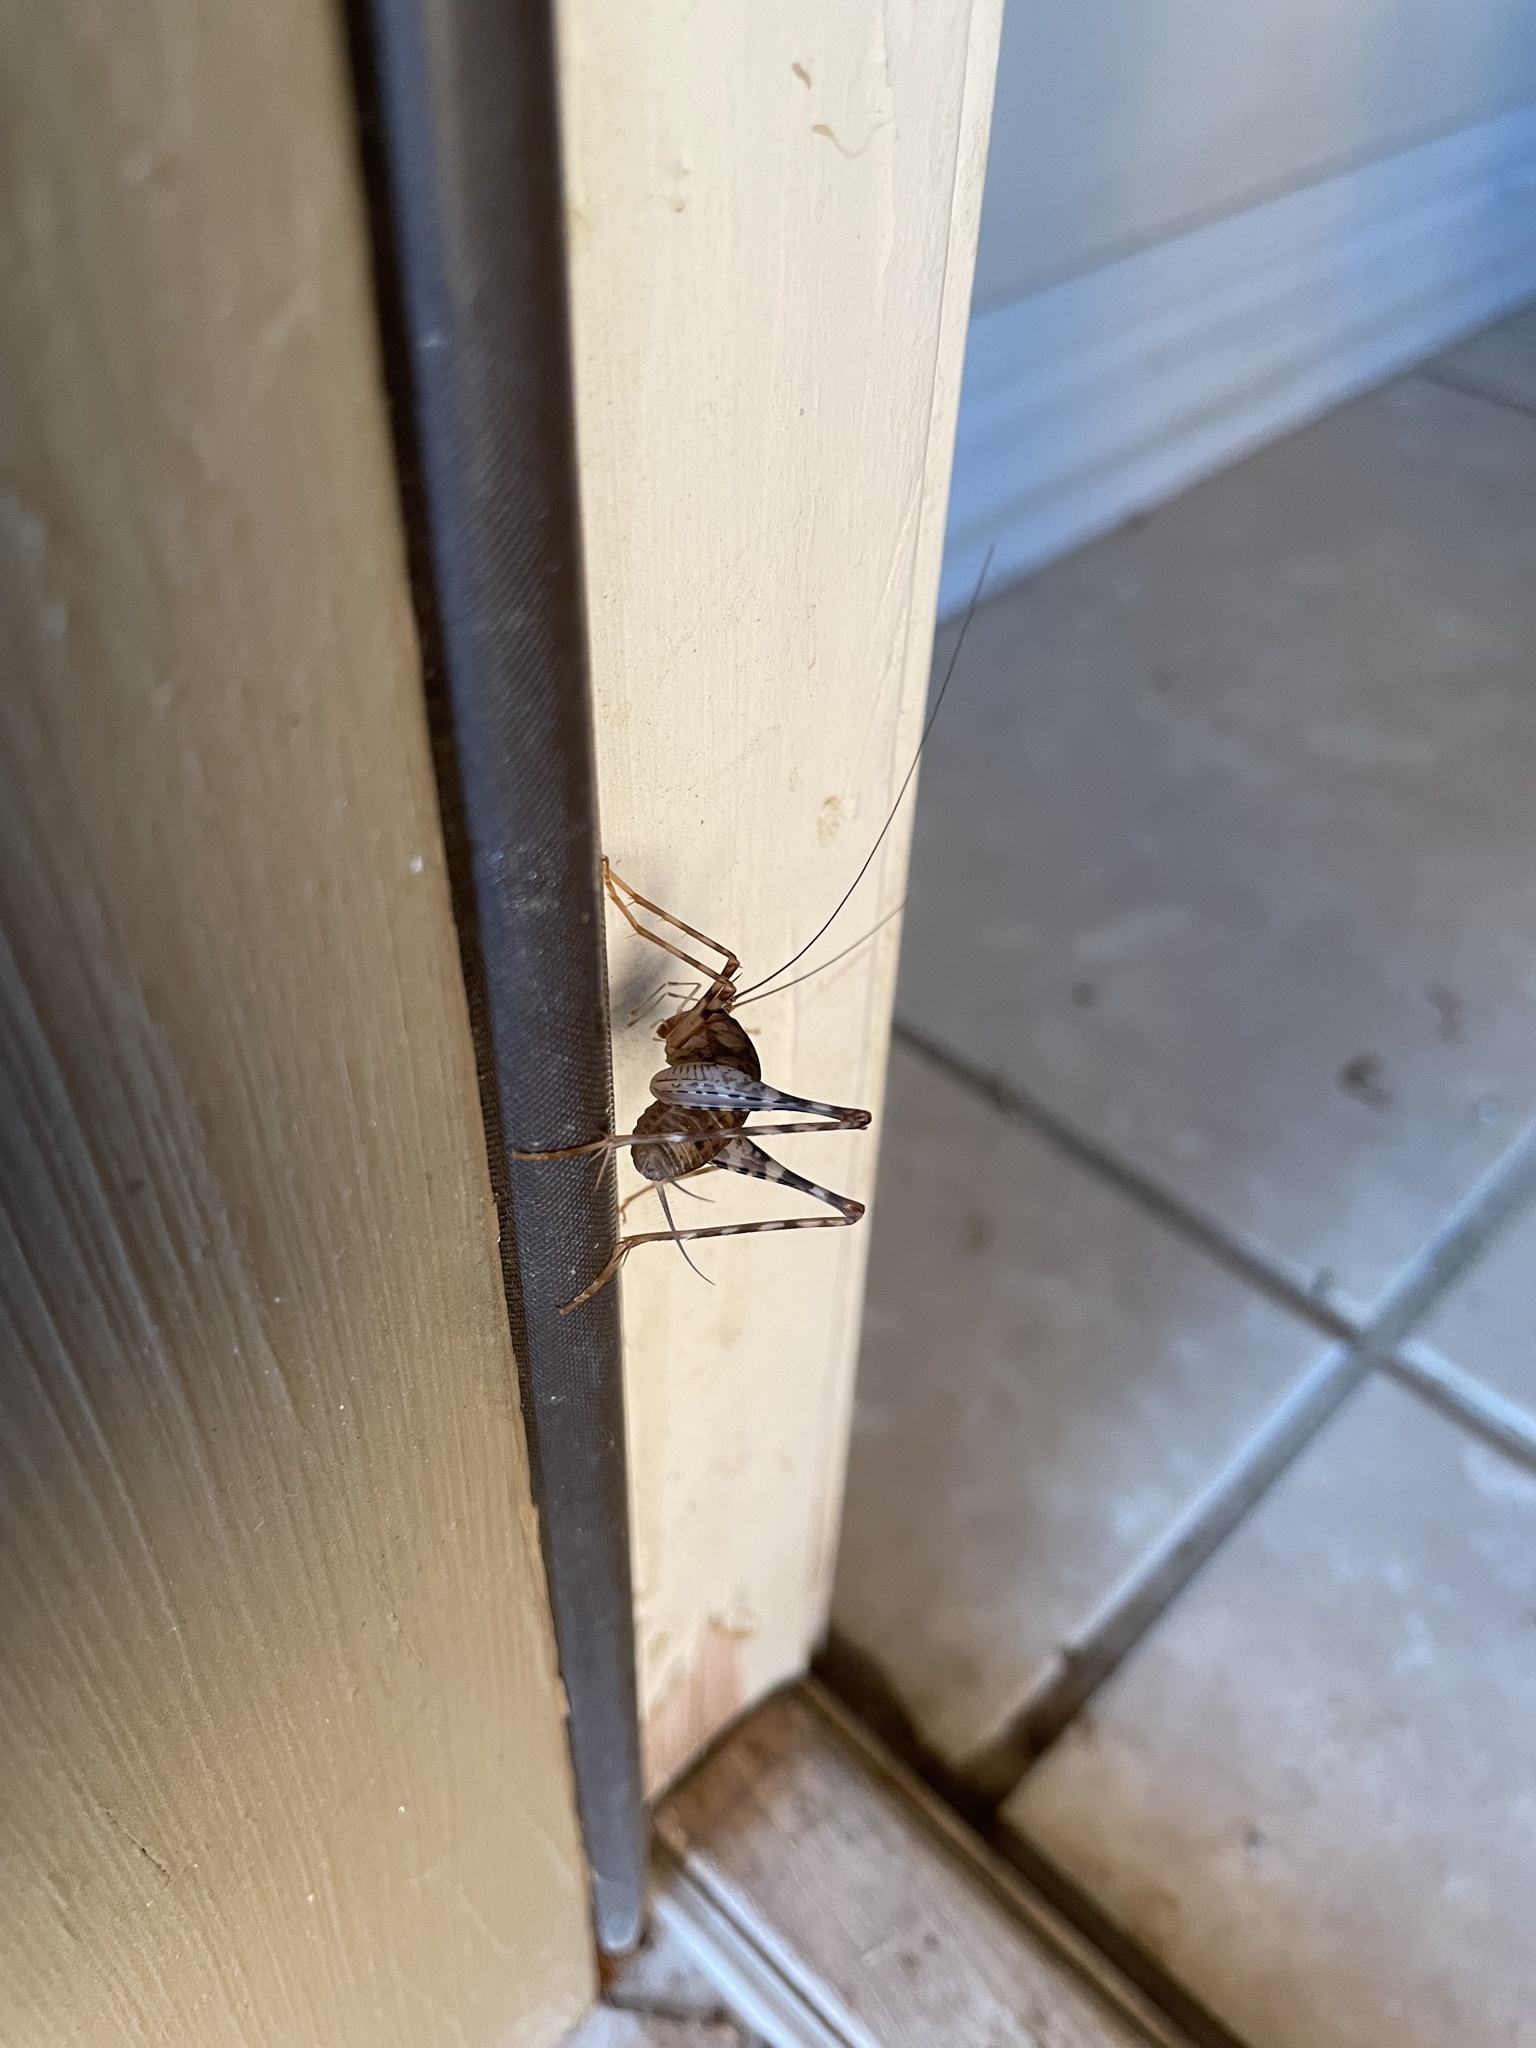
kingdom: Animalia
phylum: Arthropoda
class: Insecta
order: Orthoptera
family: Rhaphidophoridae
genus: Tachycines
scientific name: Tachycines asynamorus
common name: Greenhouse camel cricket
